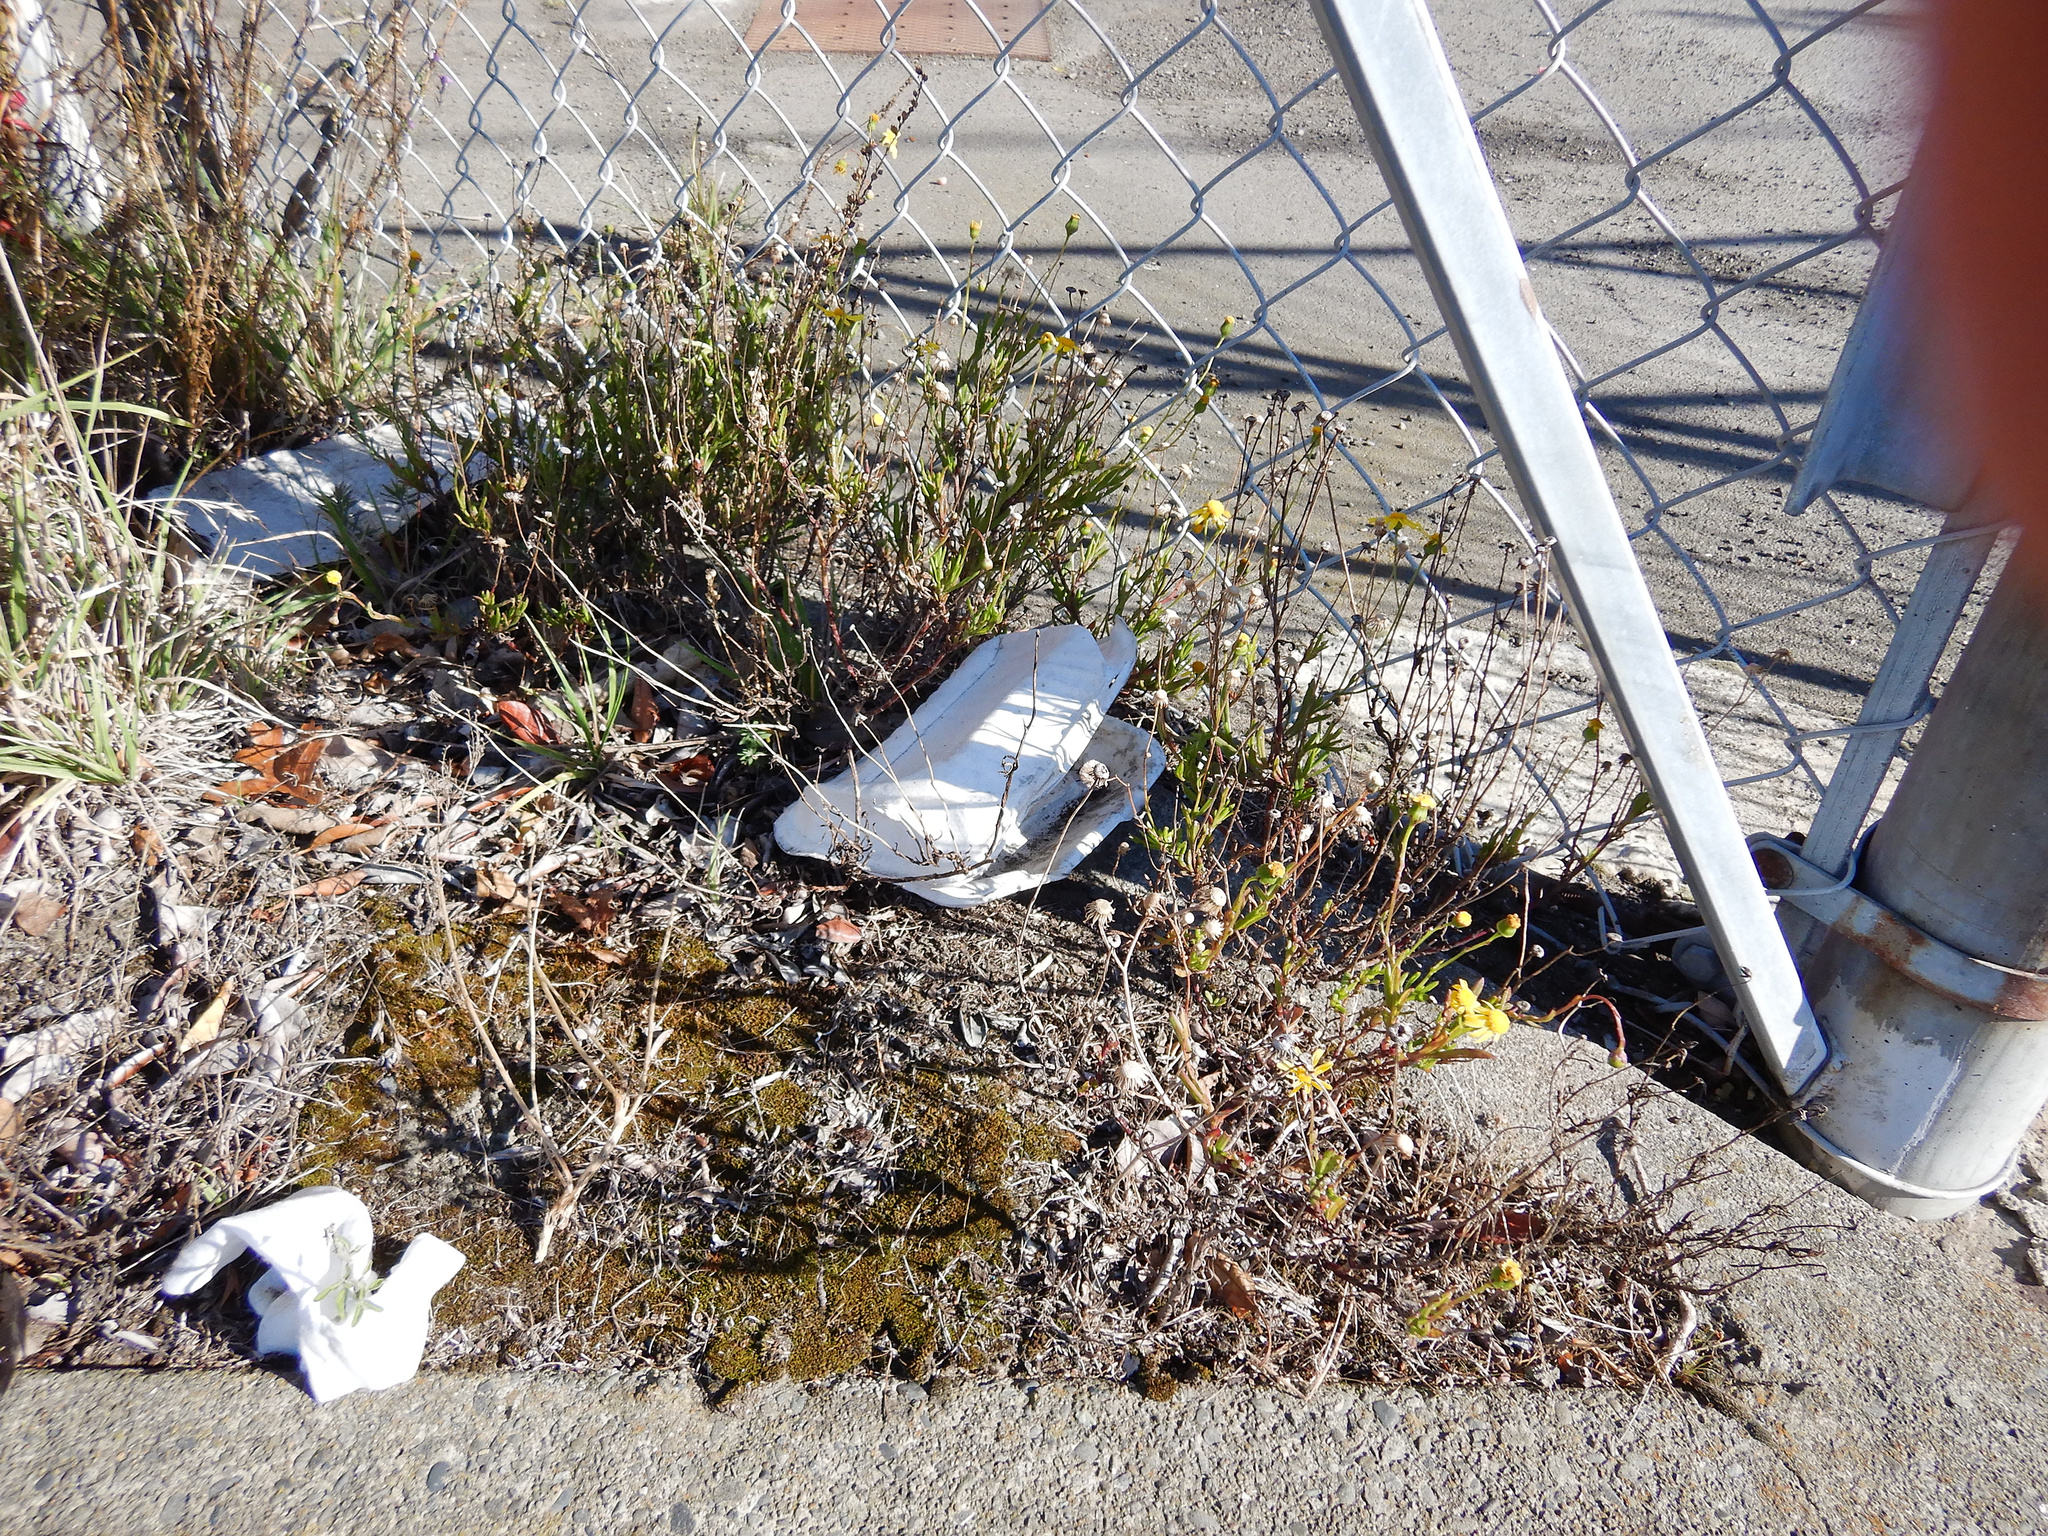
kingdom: Plantae
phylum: Tracheophyta
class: Magnoliopsida
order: Asterales
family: Asteraceae
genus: Senecio
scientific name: Senecio skirrhodon
